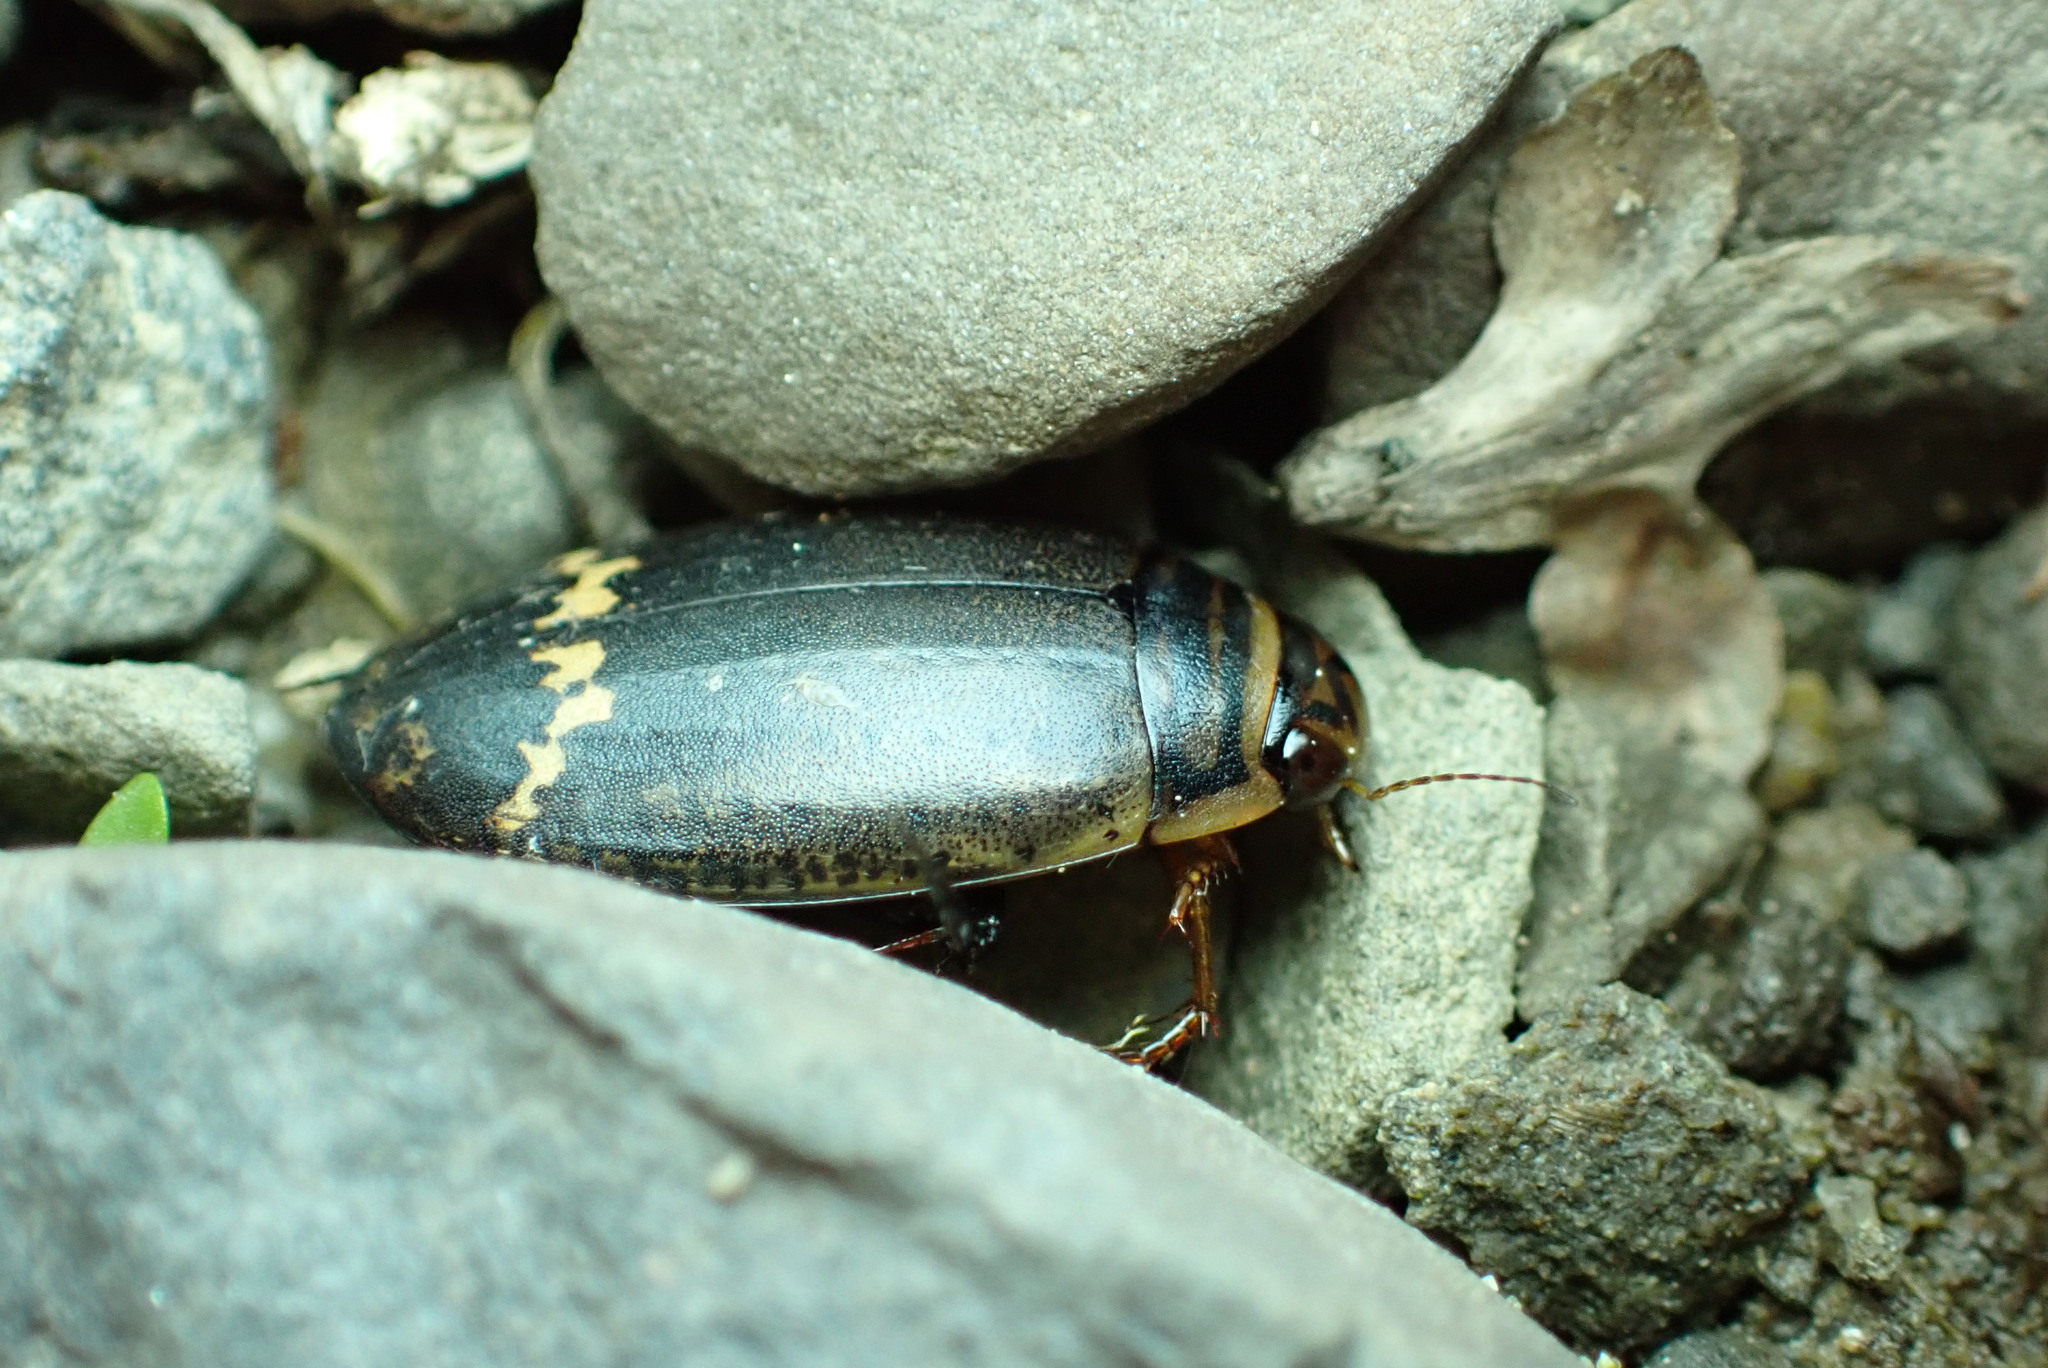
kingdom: Animalia
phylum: Arthropoda
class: Insecta
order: Coleoptera
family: Dytiscidae
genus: Acilius
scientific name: Acilius mediatus
